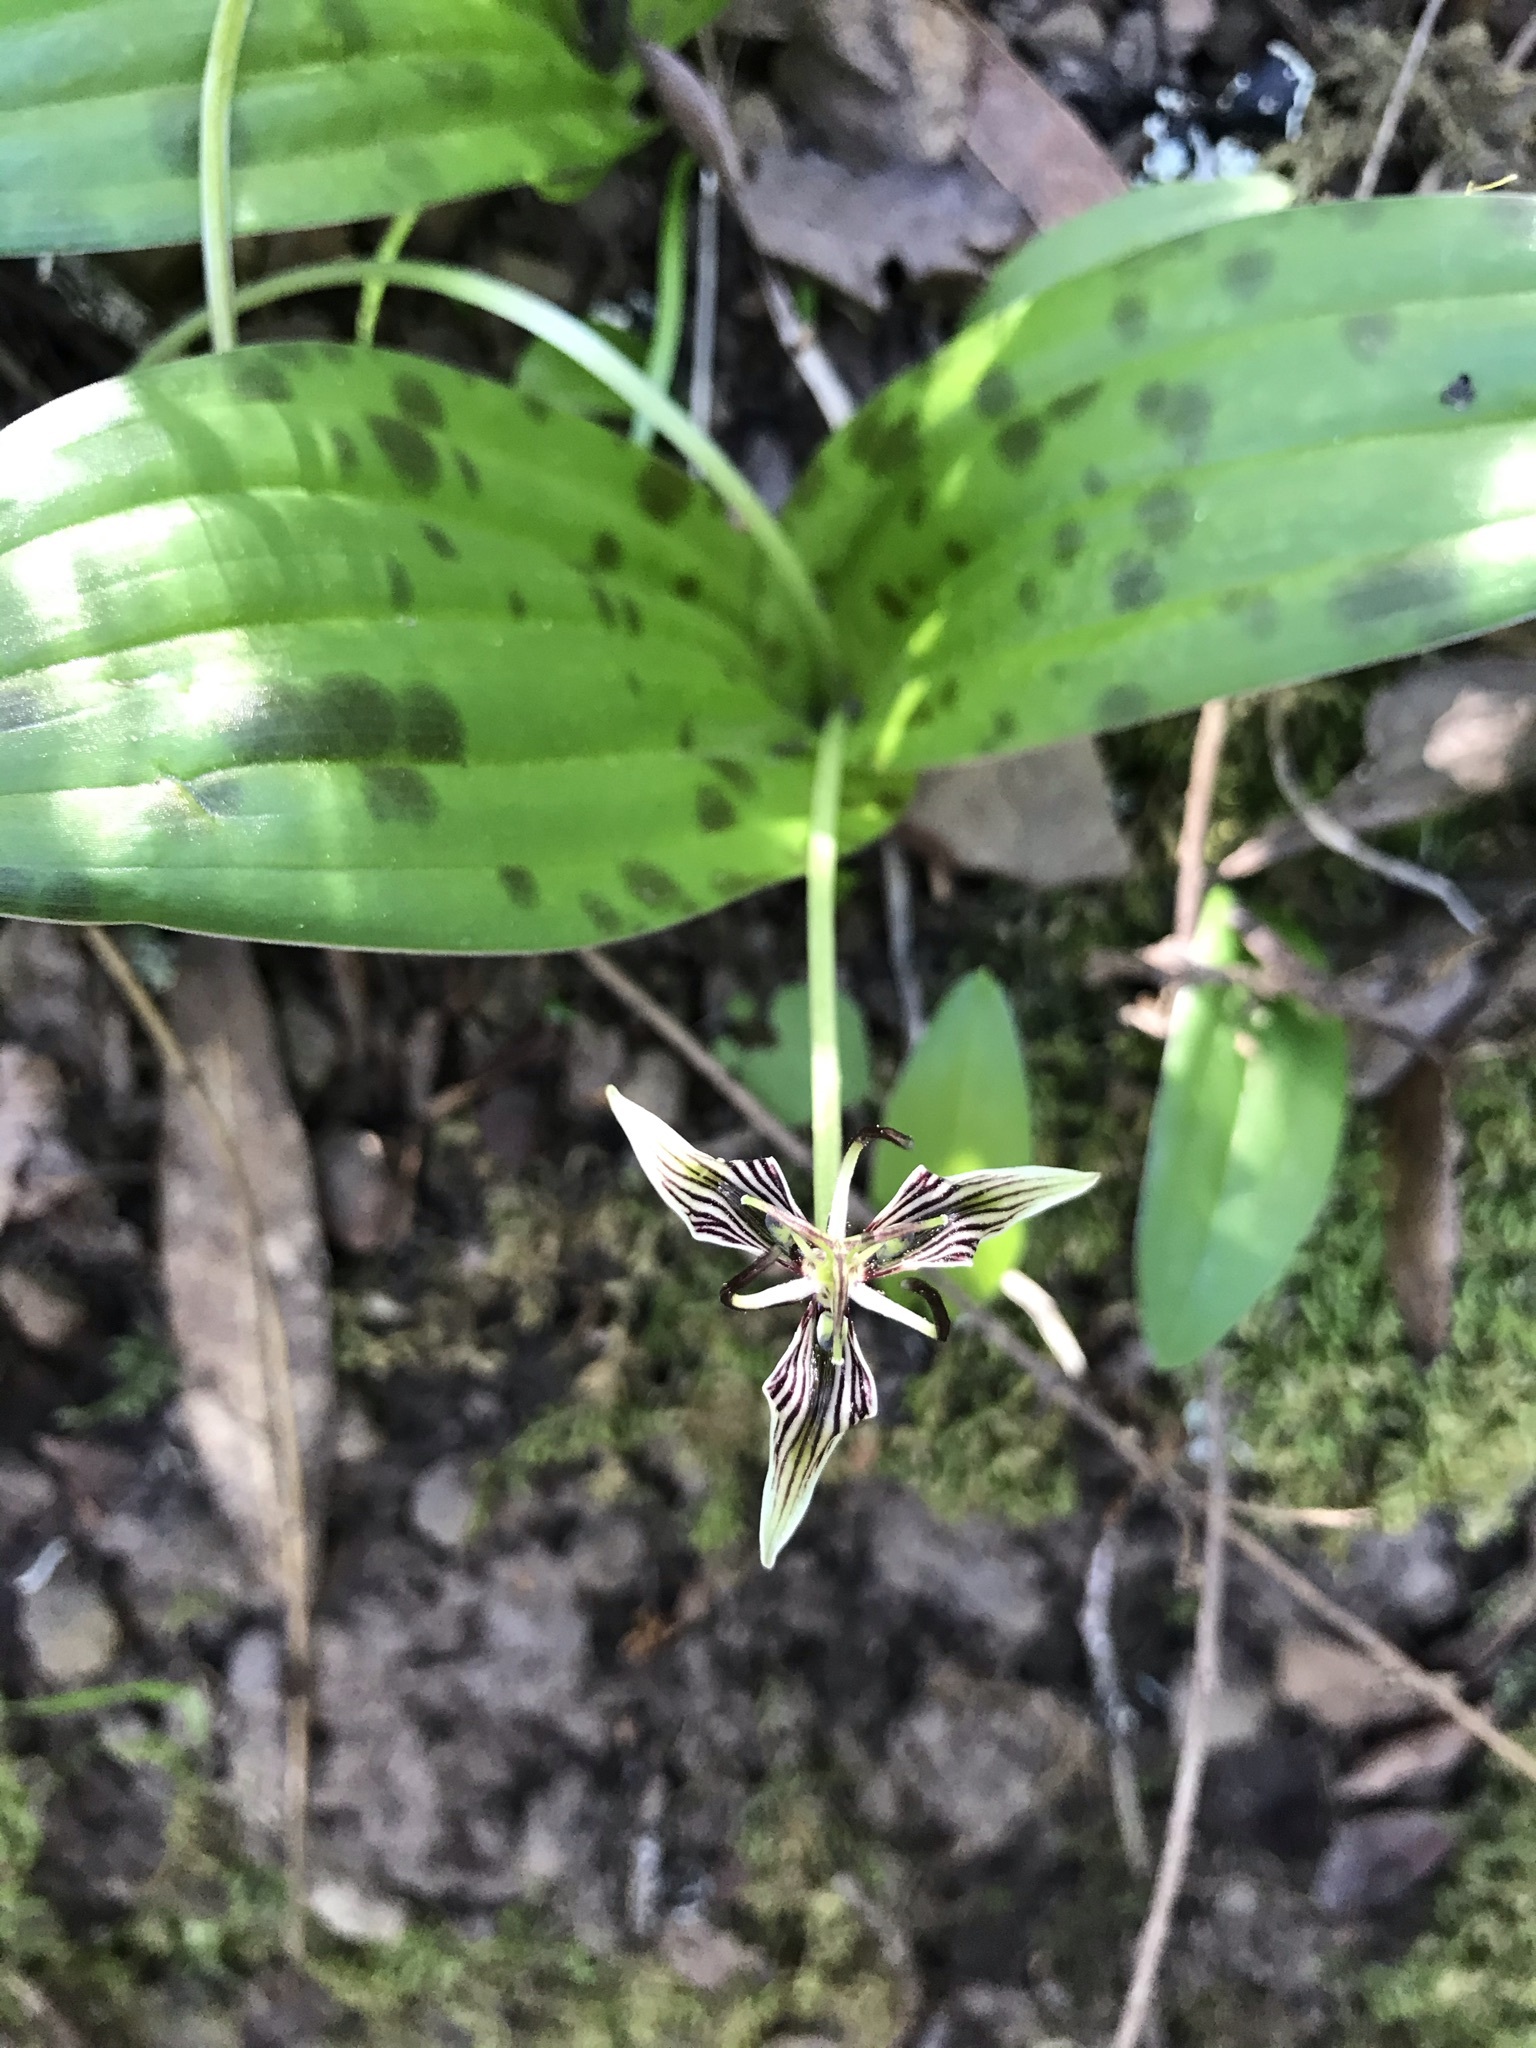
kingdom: Plantae
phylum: Tracheophyta
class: Liliopsida
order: Liliales
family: Liliaceae
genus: Scoliopus
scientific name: Scoliopus bigelovii
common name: Foetid adder's-tongue
